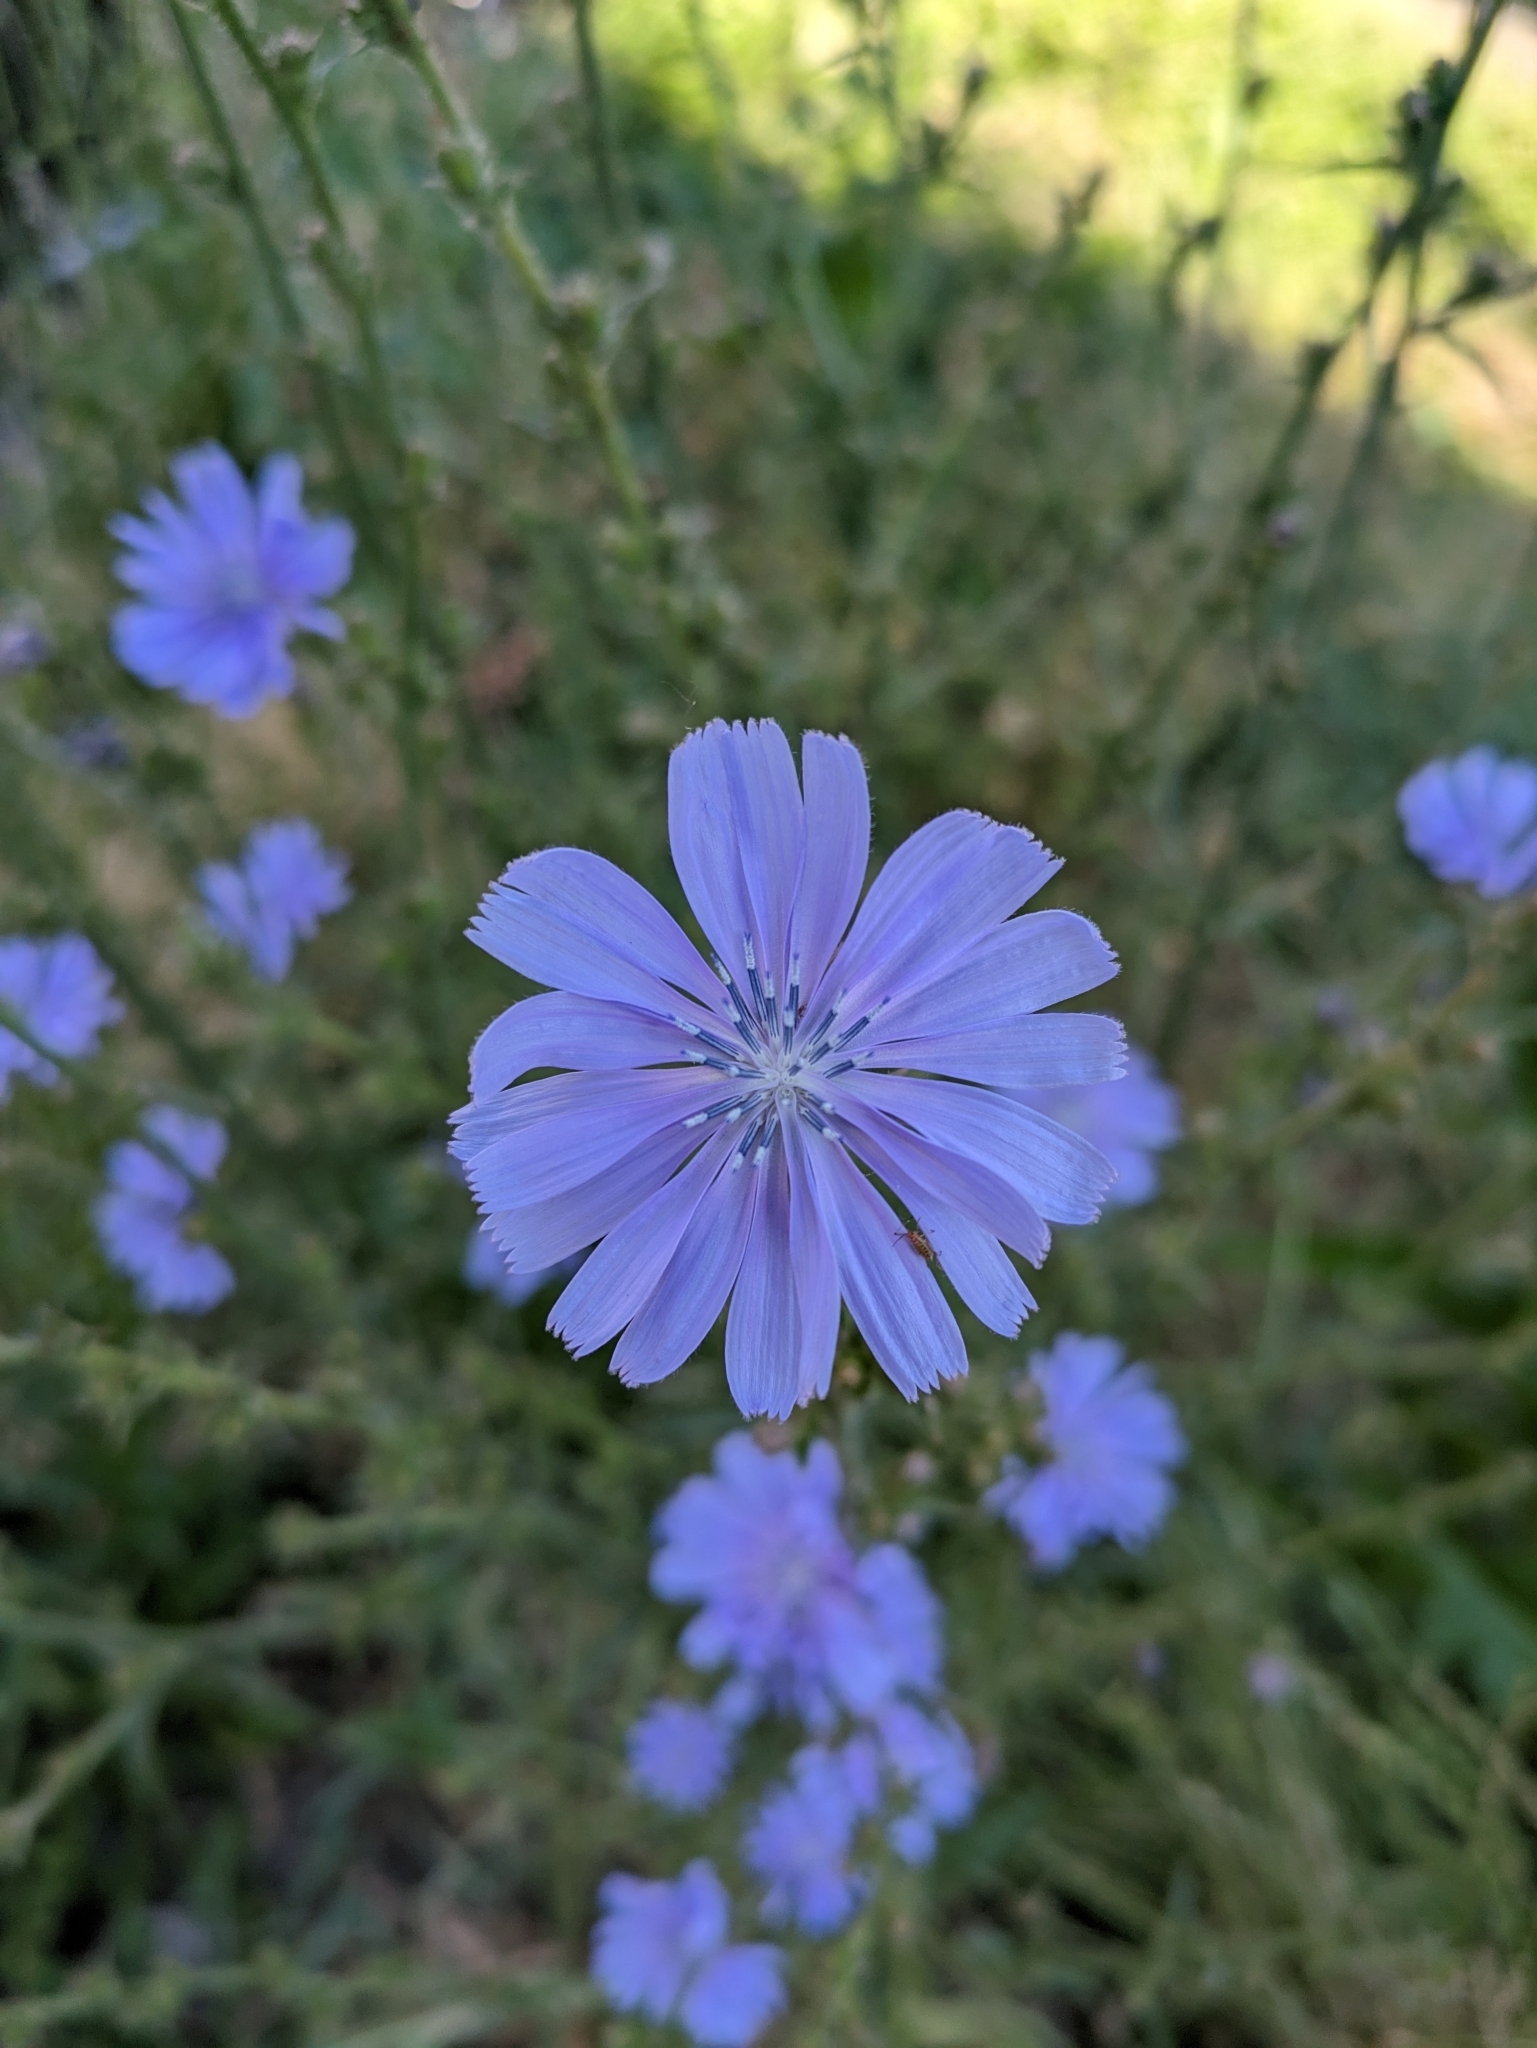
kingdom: Plantae
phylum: Tracheophyta
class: Magnoliopsida
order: Asterales
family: Asteraceae
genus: Cichorium
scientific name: Cichorium intybus
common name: Chicory
